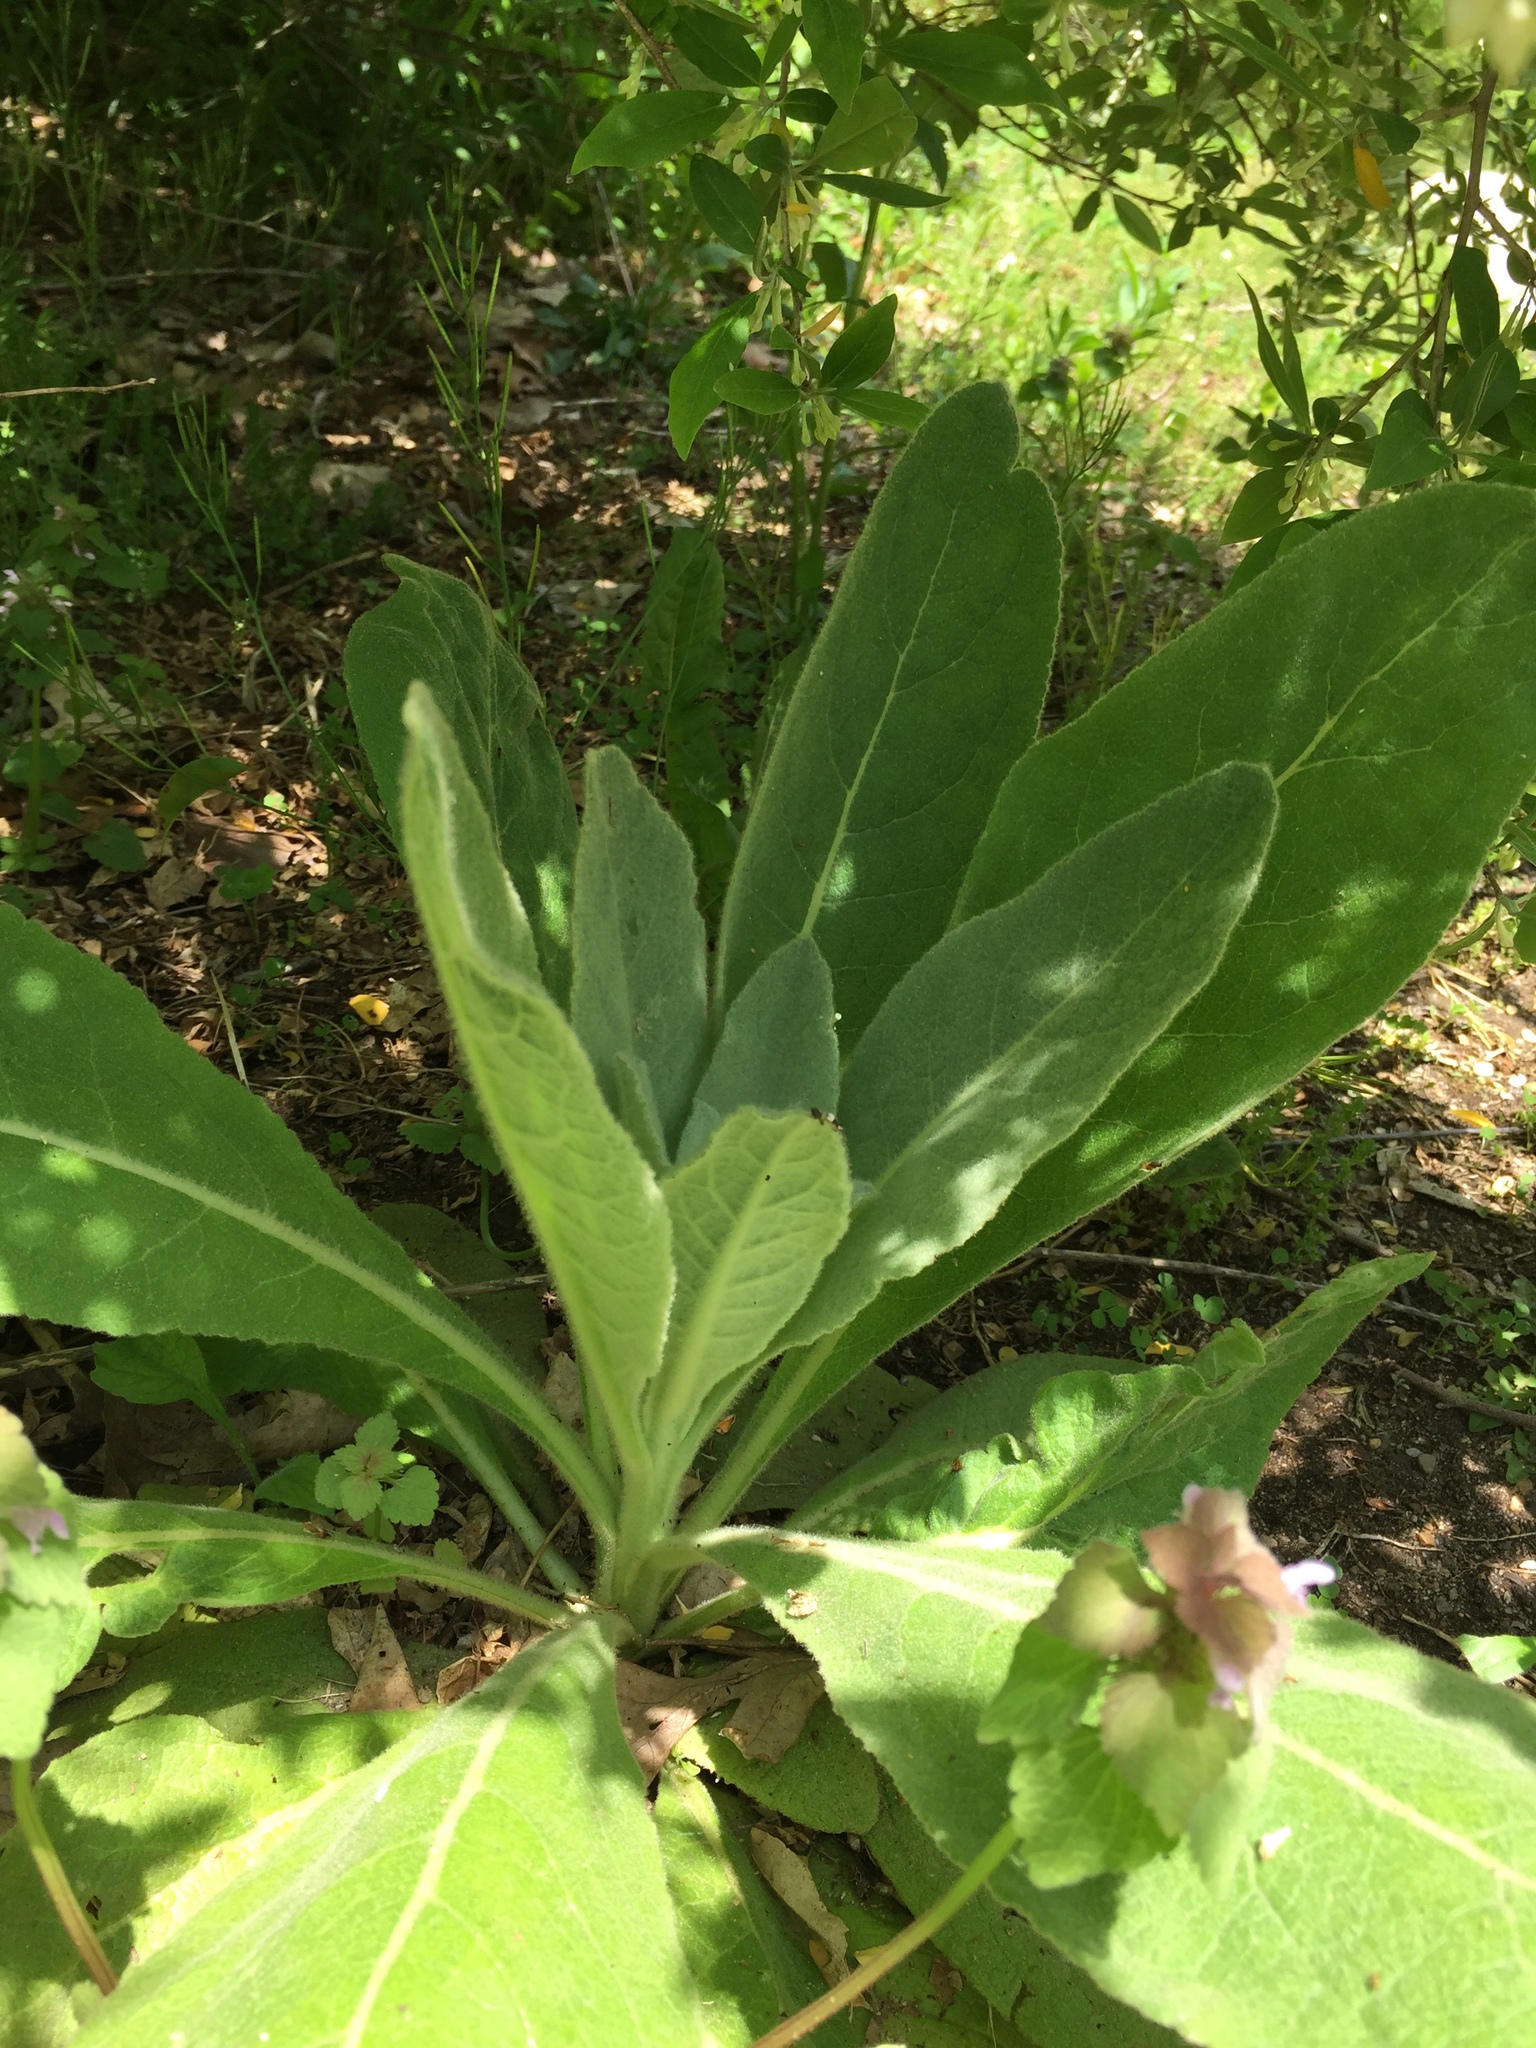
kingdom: Plantae
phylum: Tracheophyta
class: Magnoliopsida
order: Lamiales
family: Scrophulariaceae
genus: Verbascum
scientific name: Verbascum thapsus
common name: Common mullein
